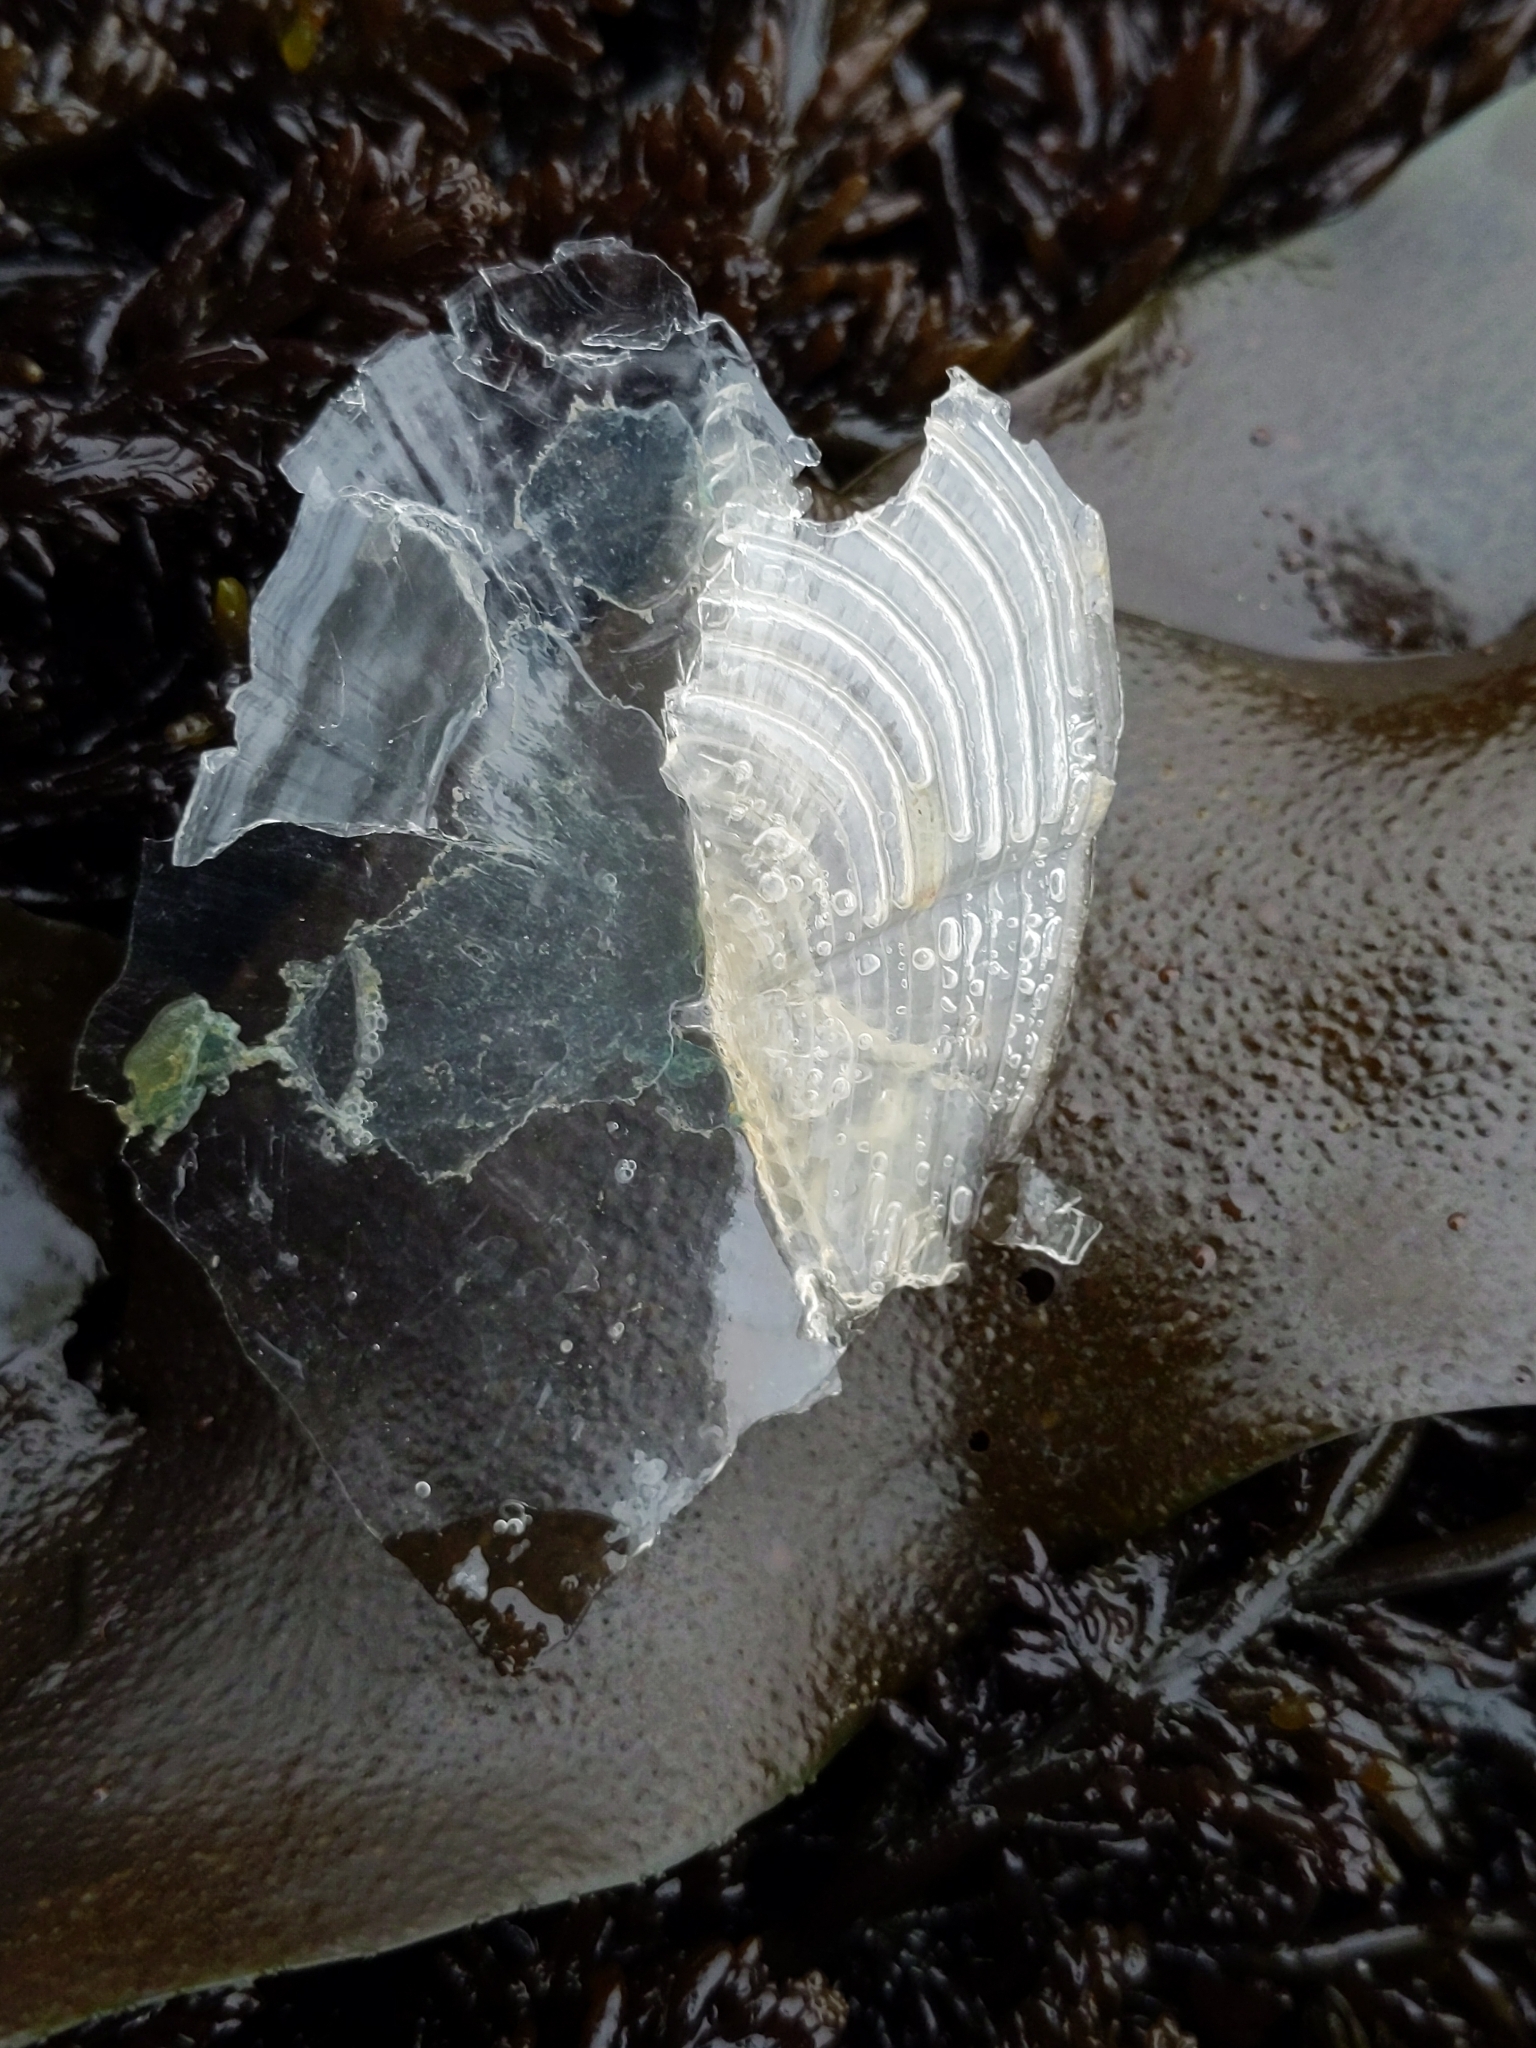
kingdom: Animalia
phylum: Cnidaria
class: Hydrozoa
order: Anthoathecata
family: Porpitidae
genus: Velella
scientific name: Velella velella
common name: By-the-wind-sailor
